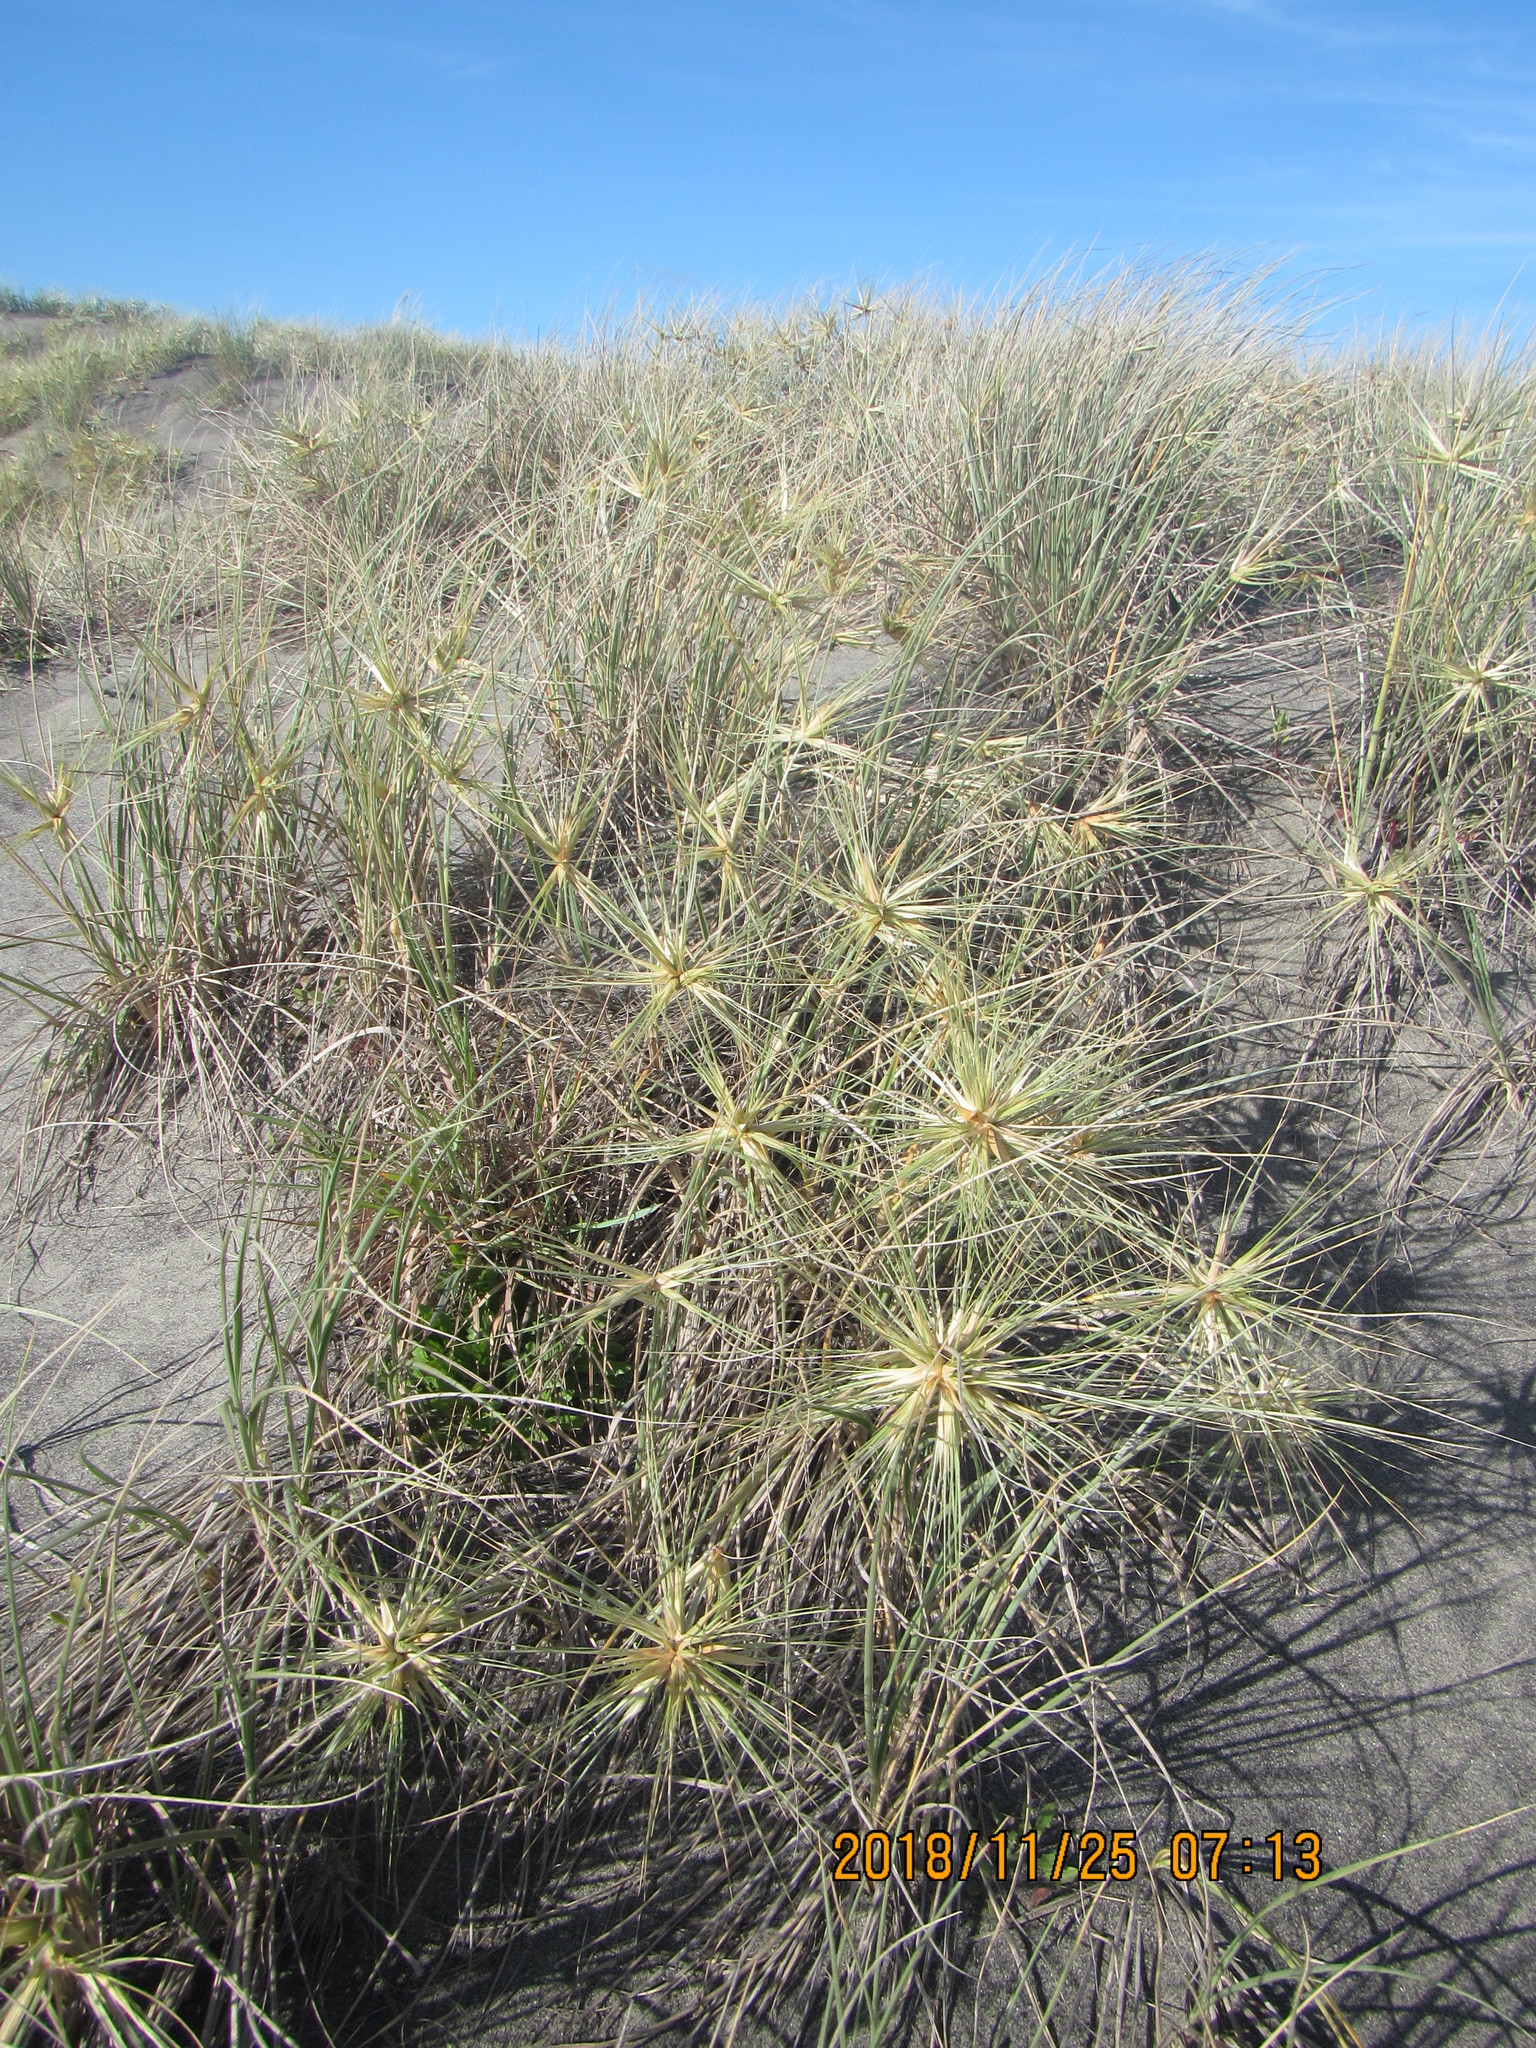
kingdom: Plantae
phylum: Tracheophyta
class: Liliopsida
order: Poales
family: Poaceae
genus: Spinifex
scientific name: Spinifex sericeus
